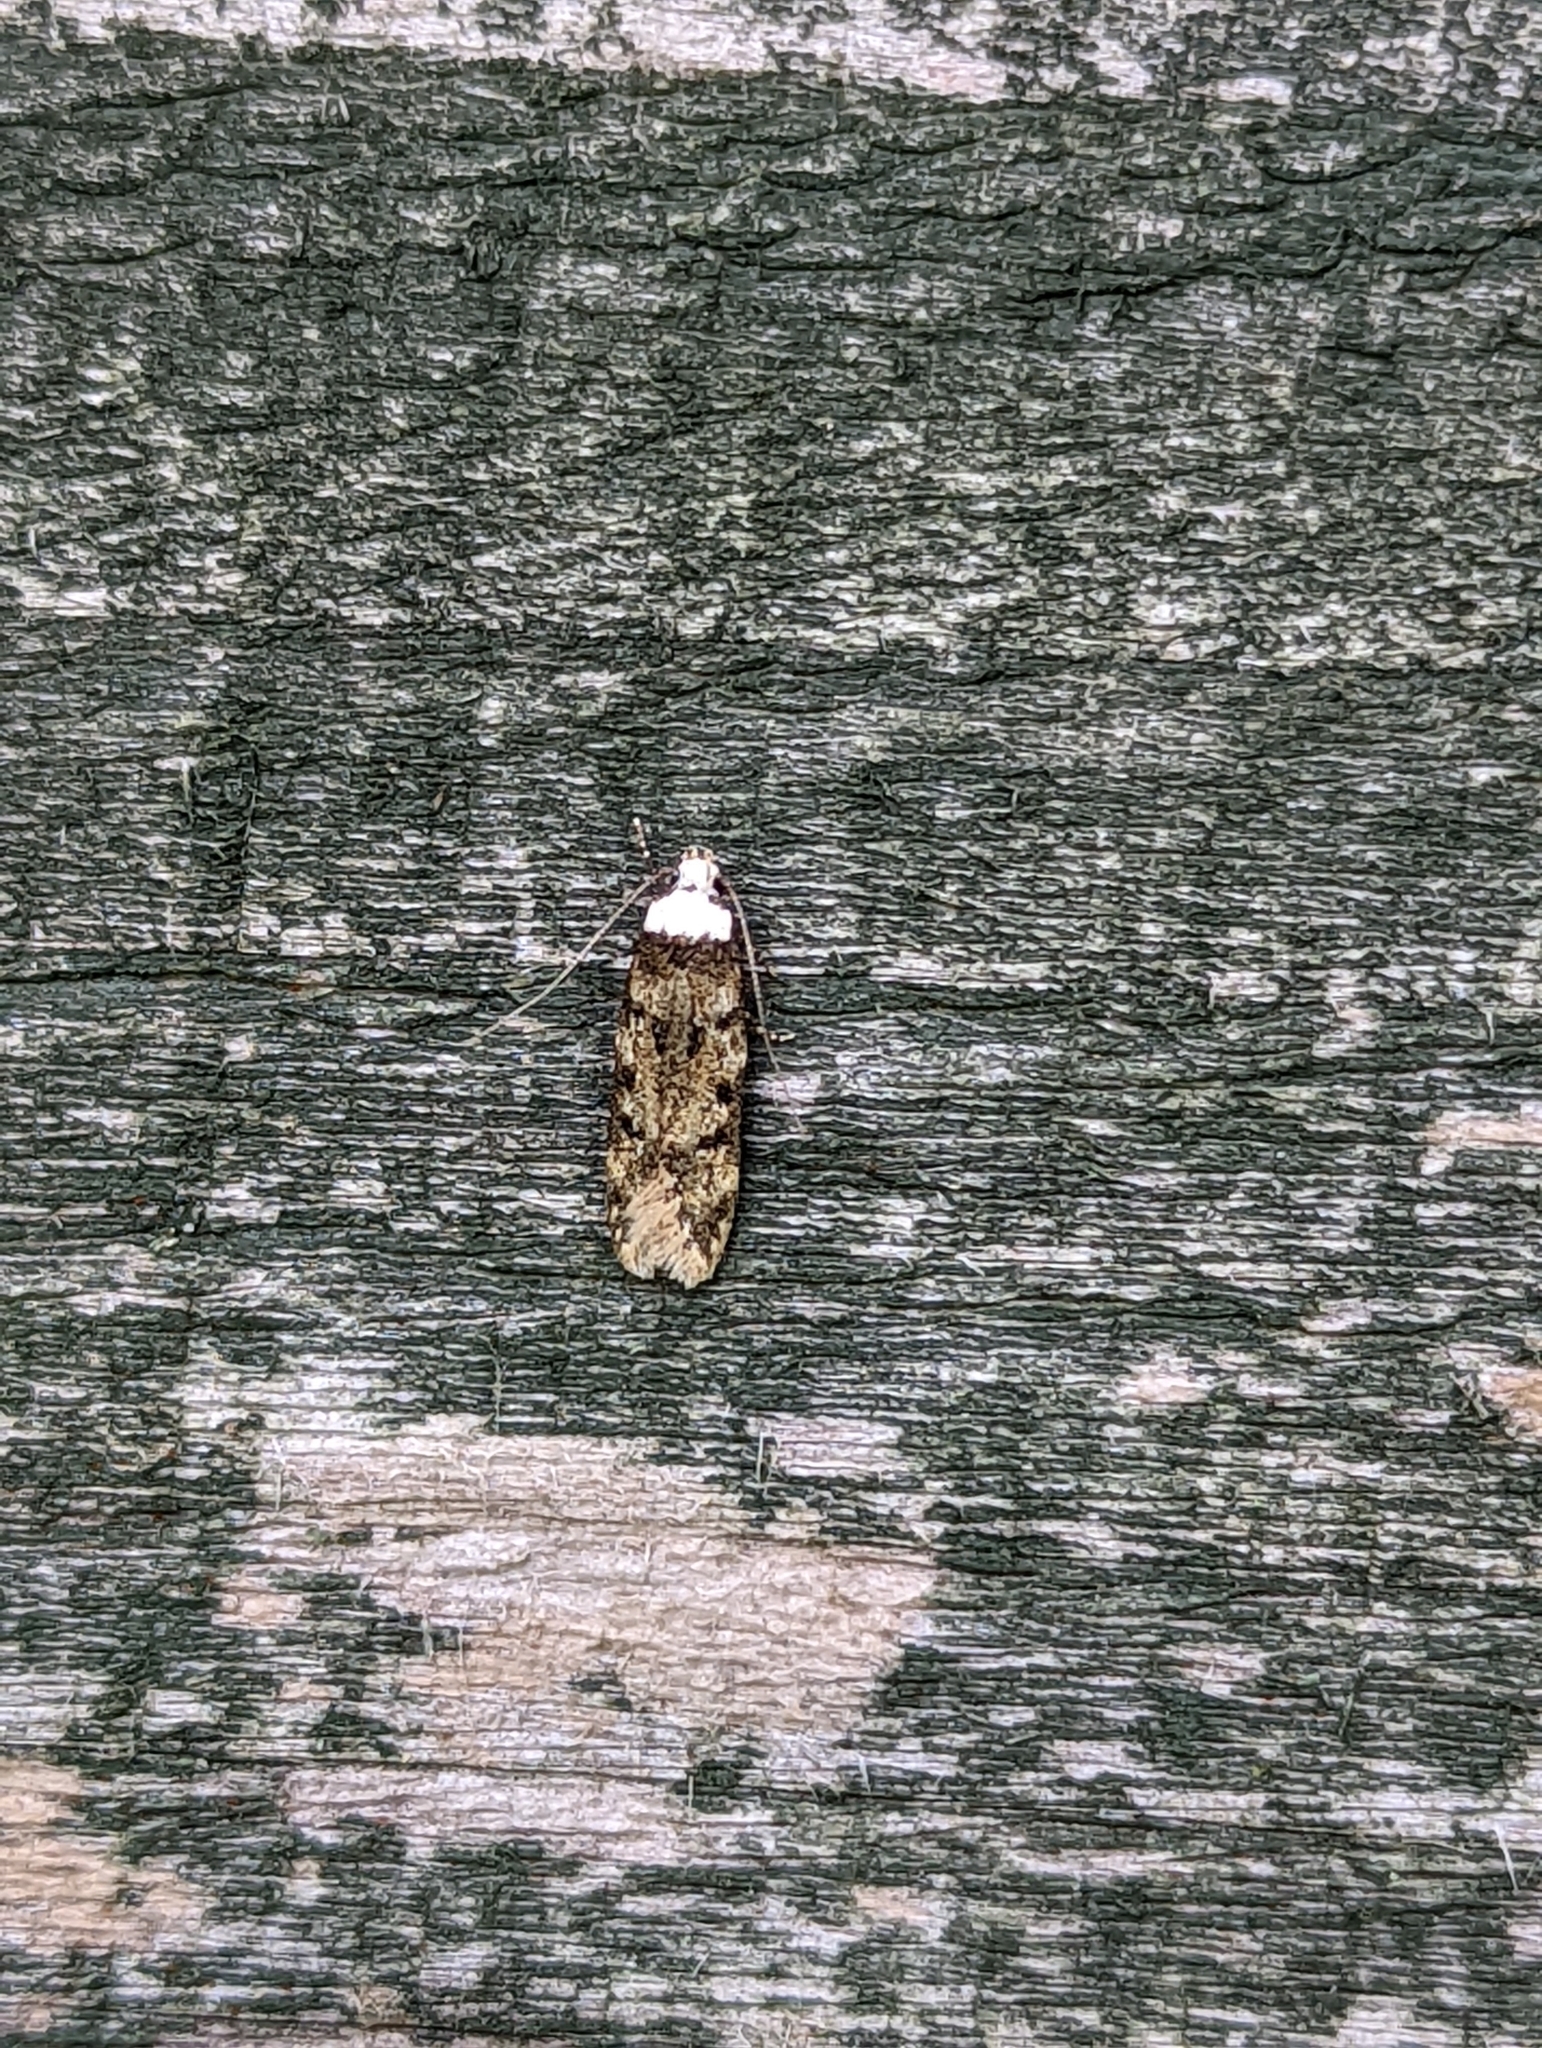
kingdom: Animalia
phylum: Arthropoda
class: Insecta
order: Lepidoptera
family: Oecophoridae
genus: Endrosis
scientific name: Endrosis sarcitrella
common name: White-shouldered house moth
